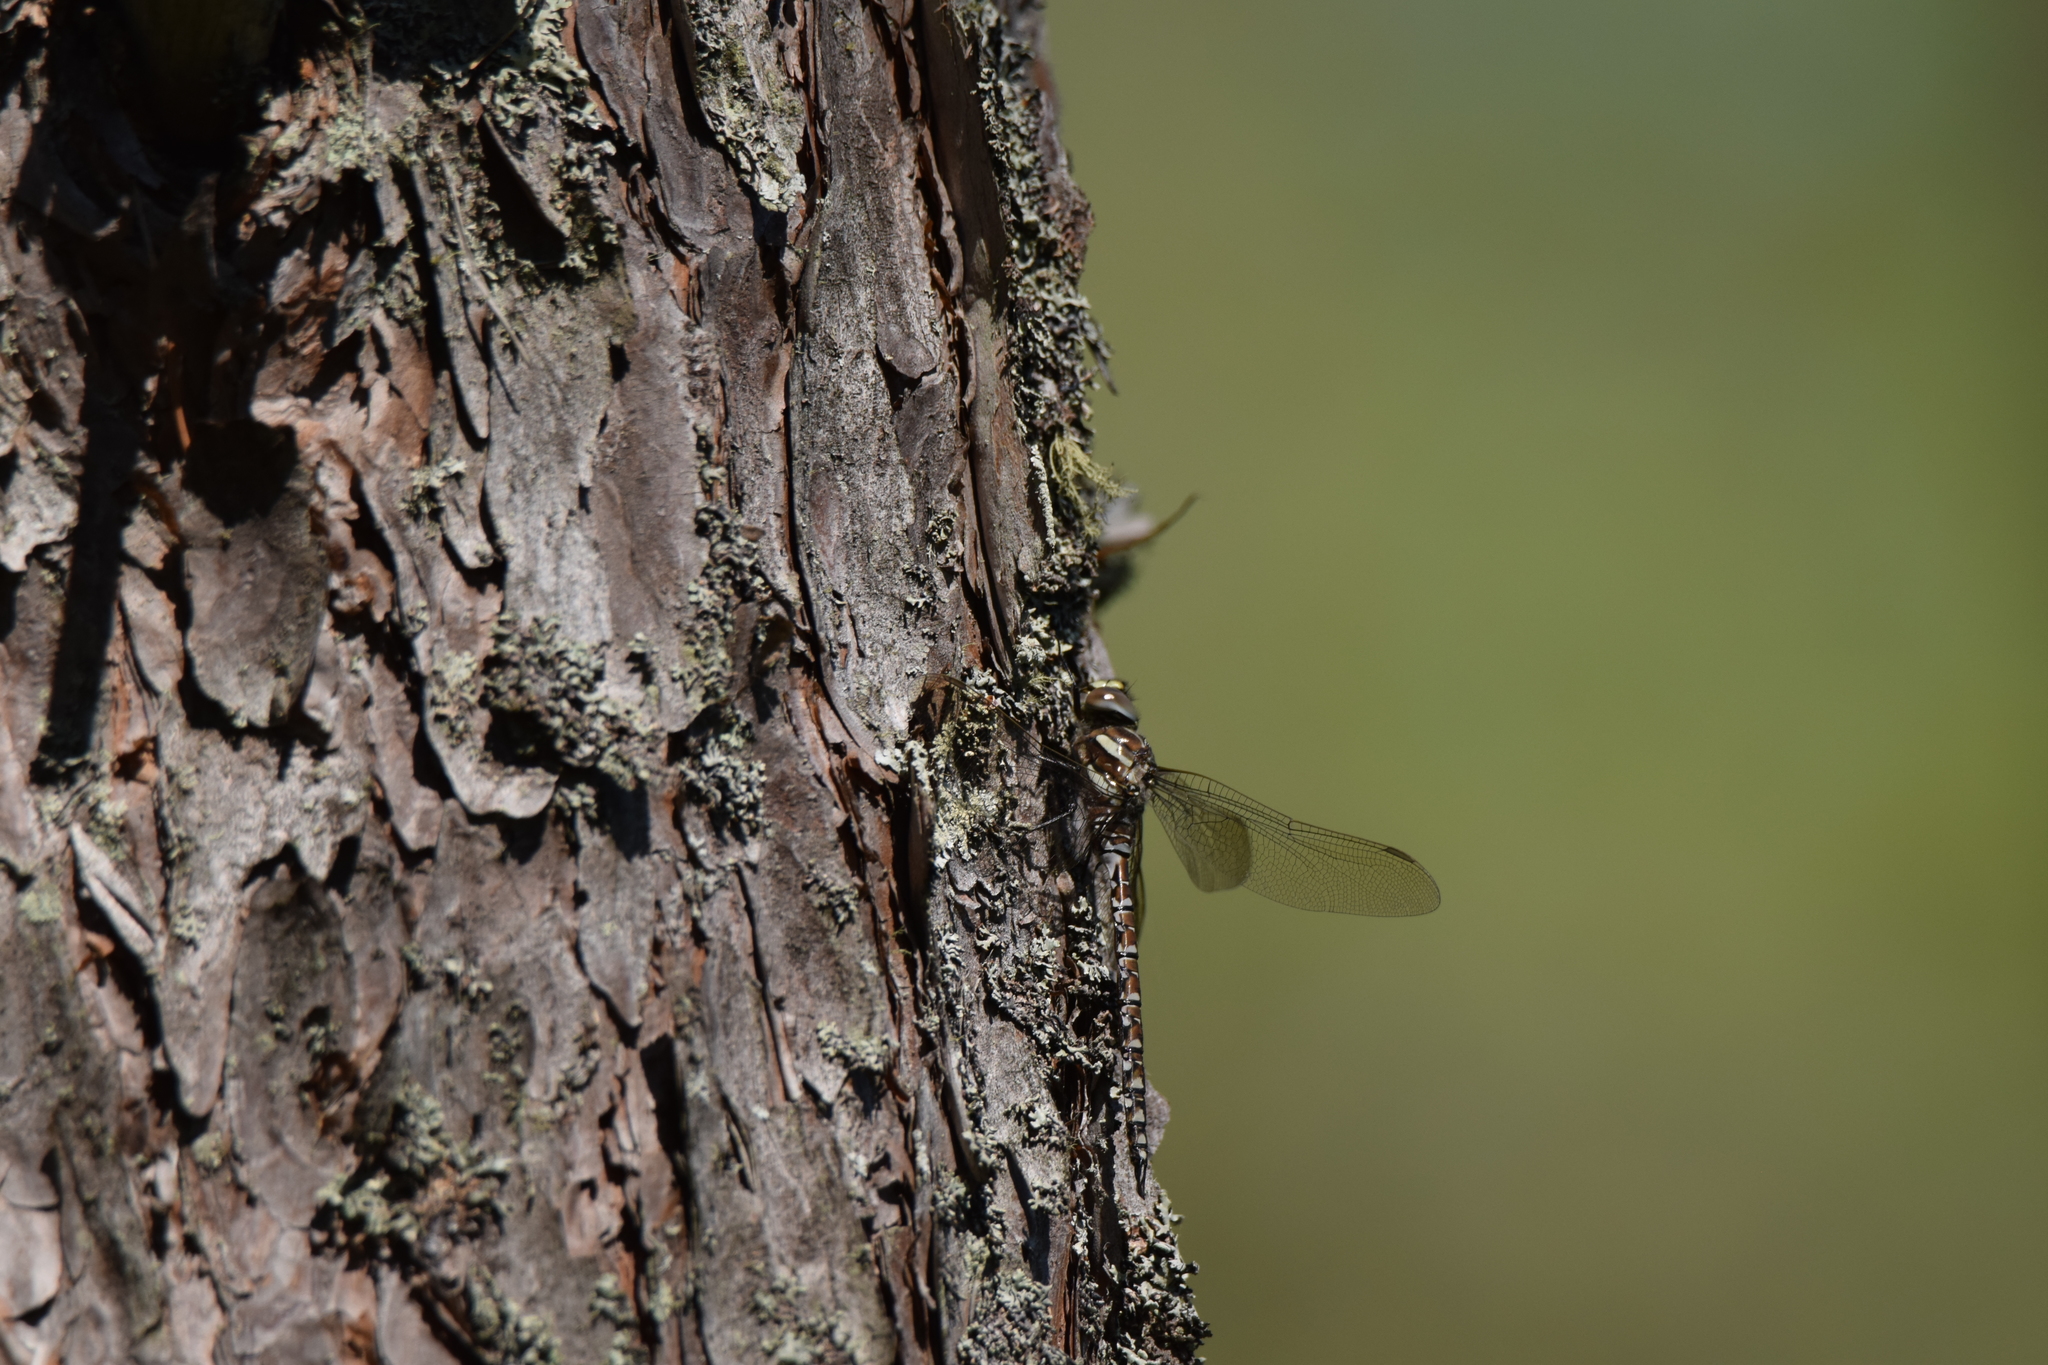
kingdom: Animalia
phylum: Arthropoda
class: Insecta
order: Odonata
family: Aeshnidae
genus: Aeshna
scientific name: Aeshna juncea
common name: Moorland hawker
